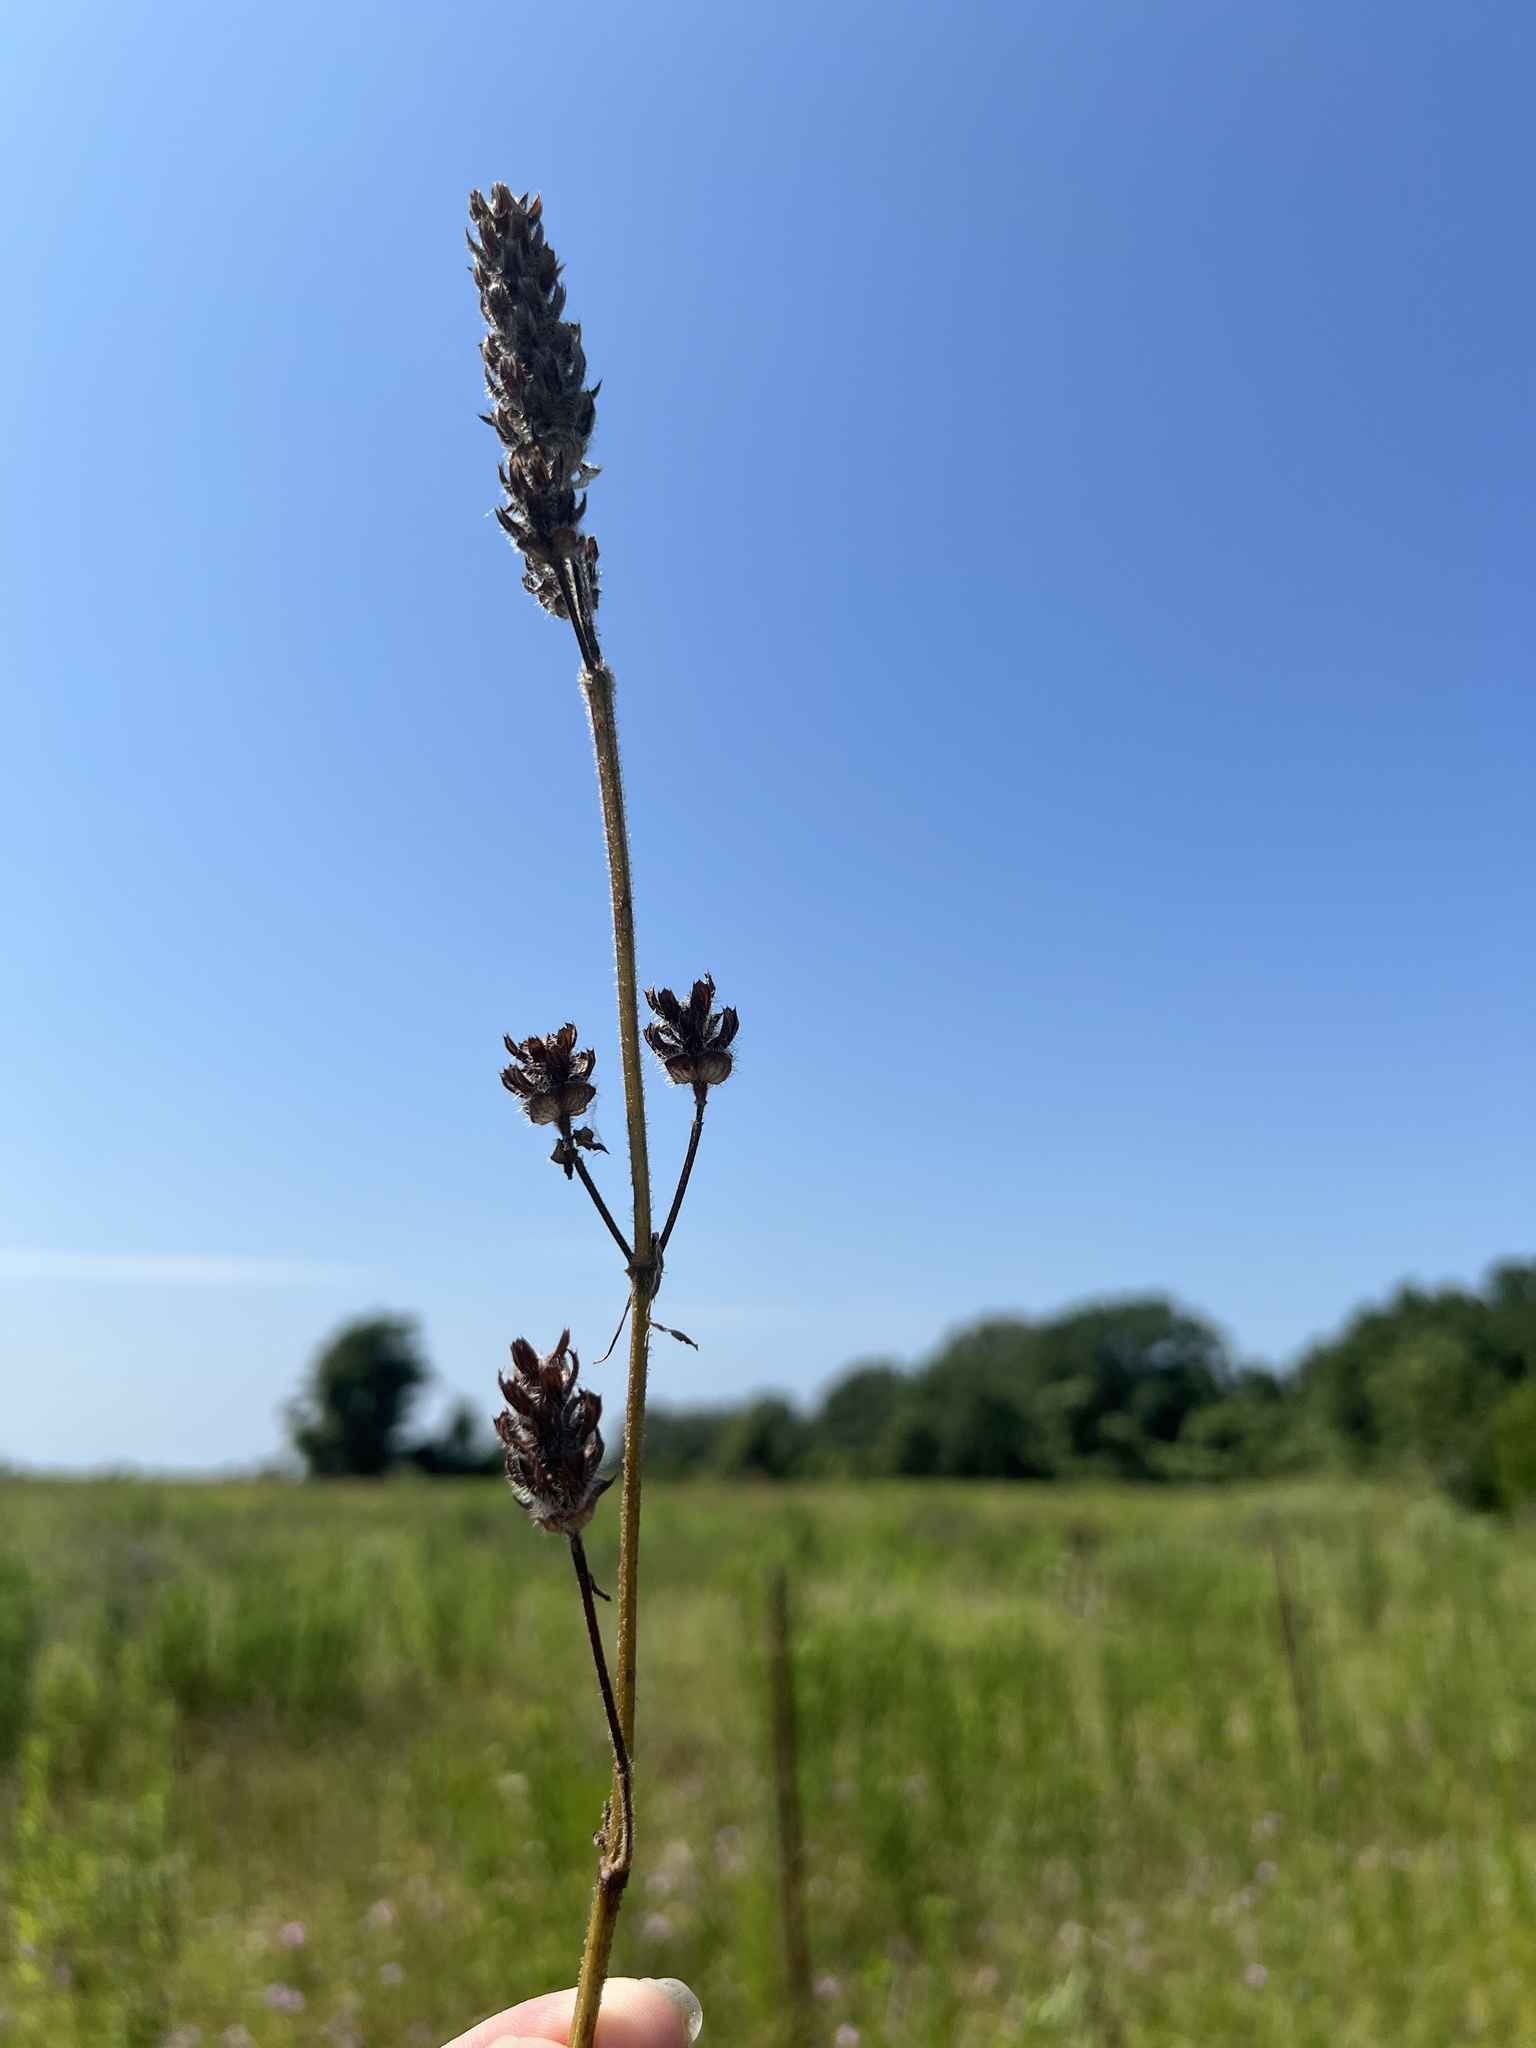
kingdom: Plantae
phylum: Tracheophyta
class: Magnoliopsida
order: Lamiales
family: Lamiaceae
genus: Prunella
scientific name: Prunella vulgaris
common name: Heal-all
